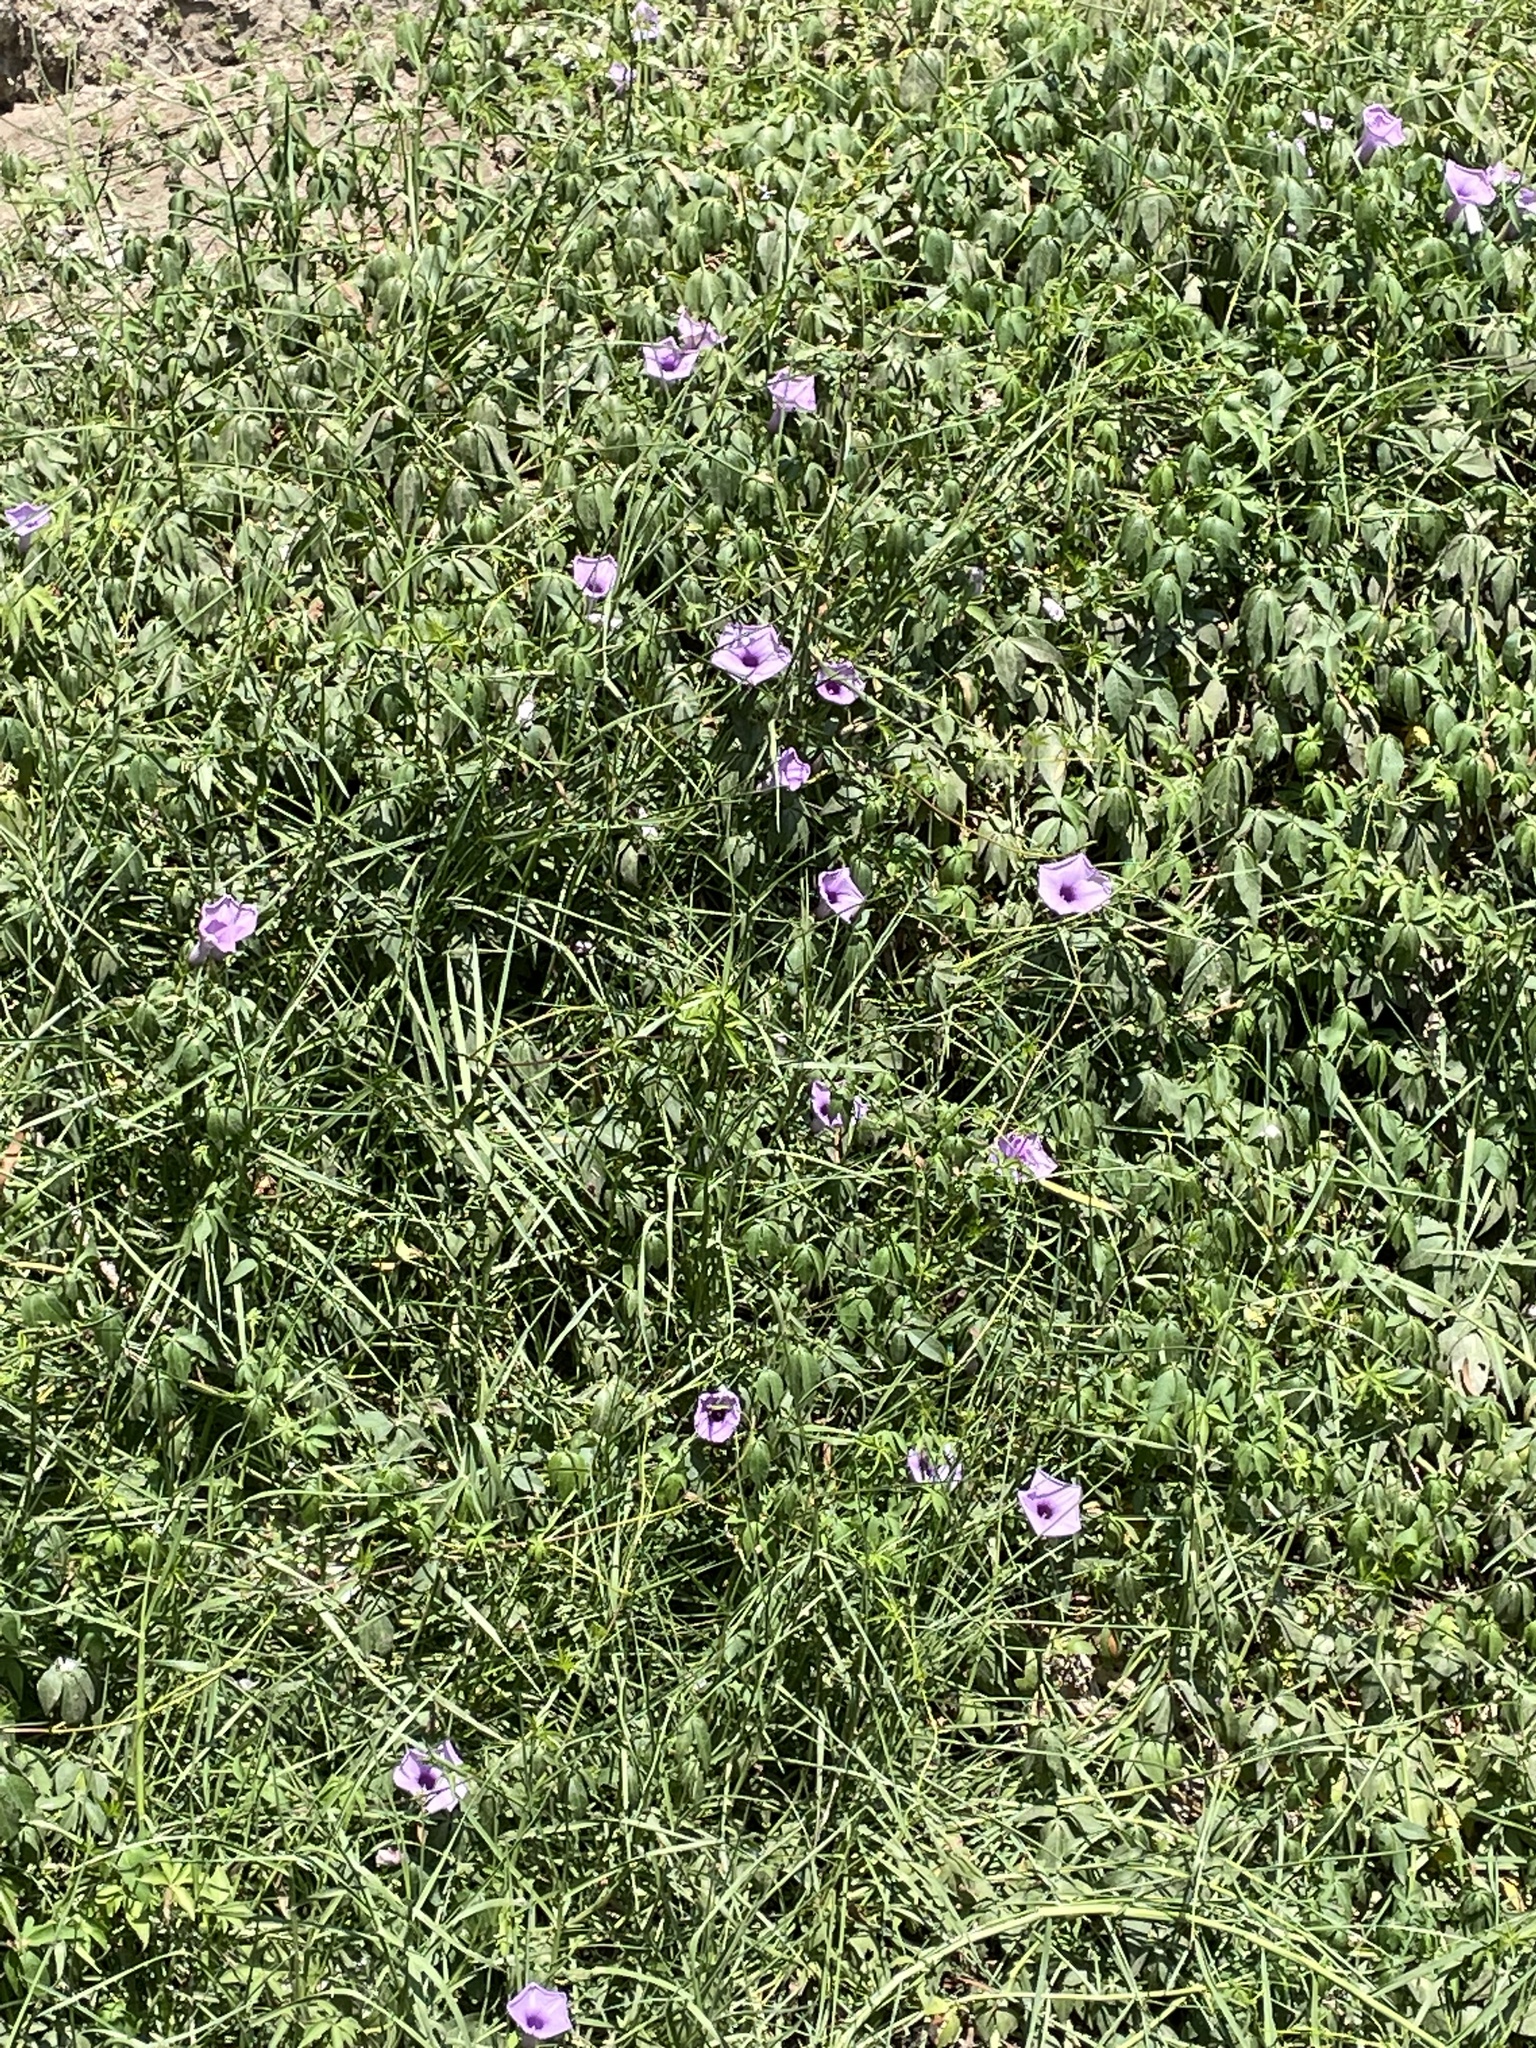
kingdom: Plantae
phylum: Tracheophyta
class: Magnoliopsida
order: Solanales
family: Convolvulaceae
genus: Ipomoea
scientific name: Ipomoea cairica
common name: Mile a minute vine
